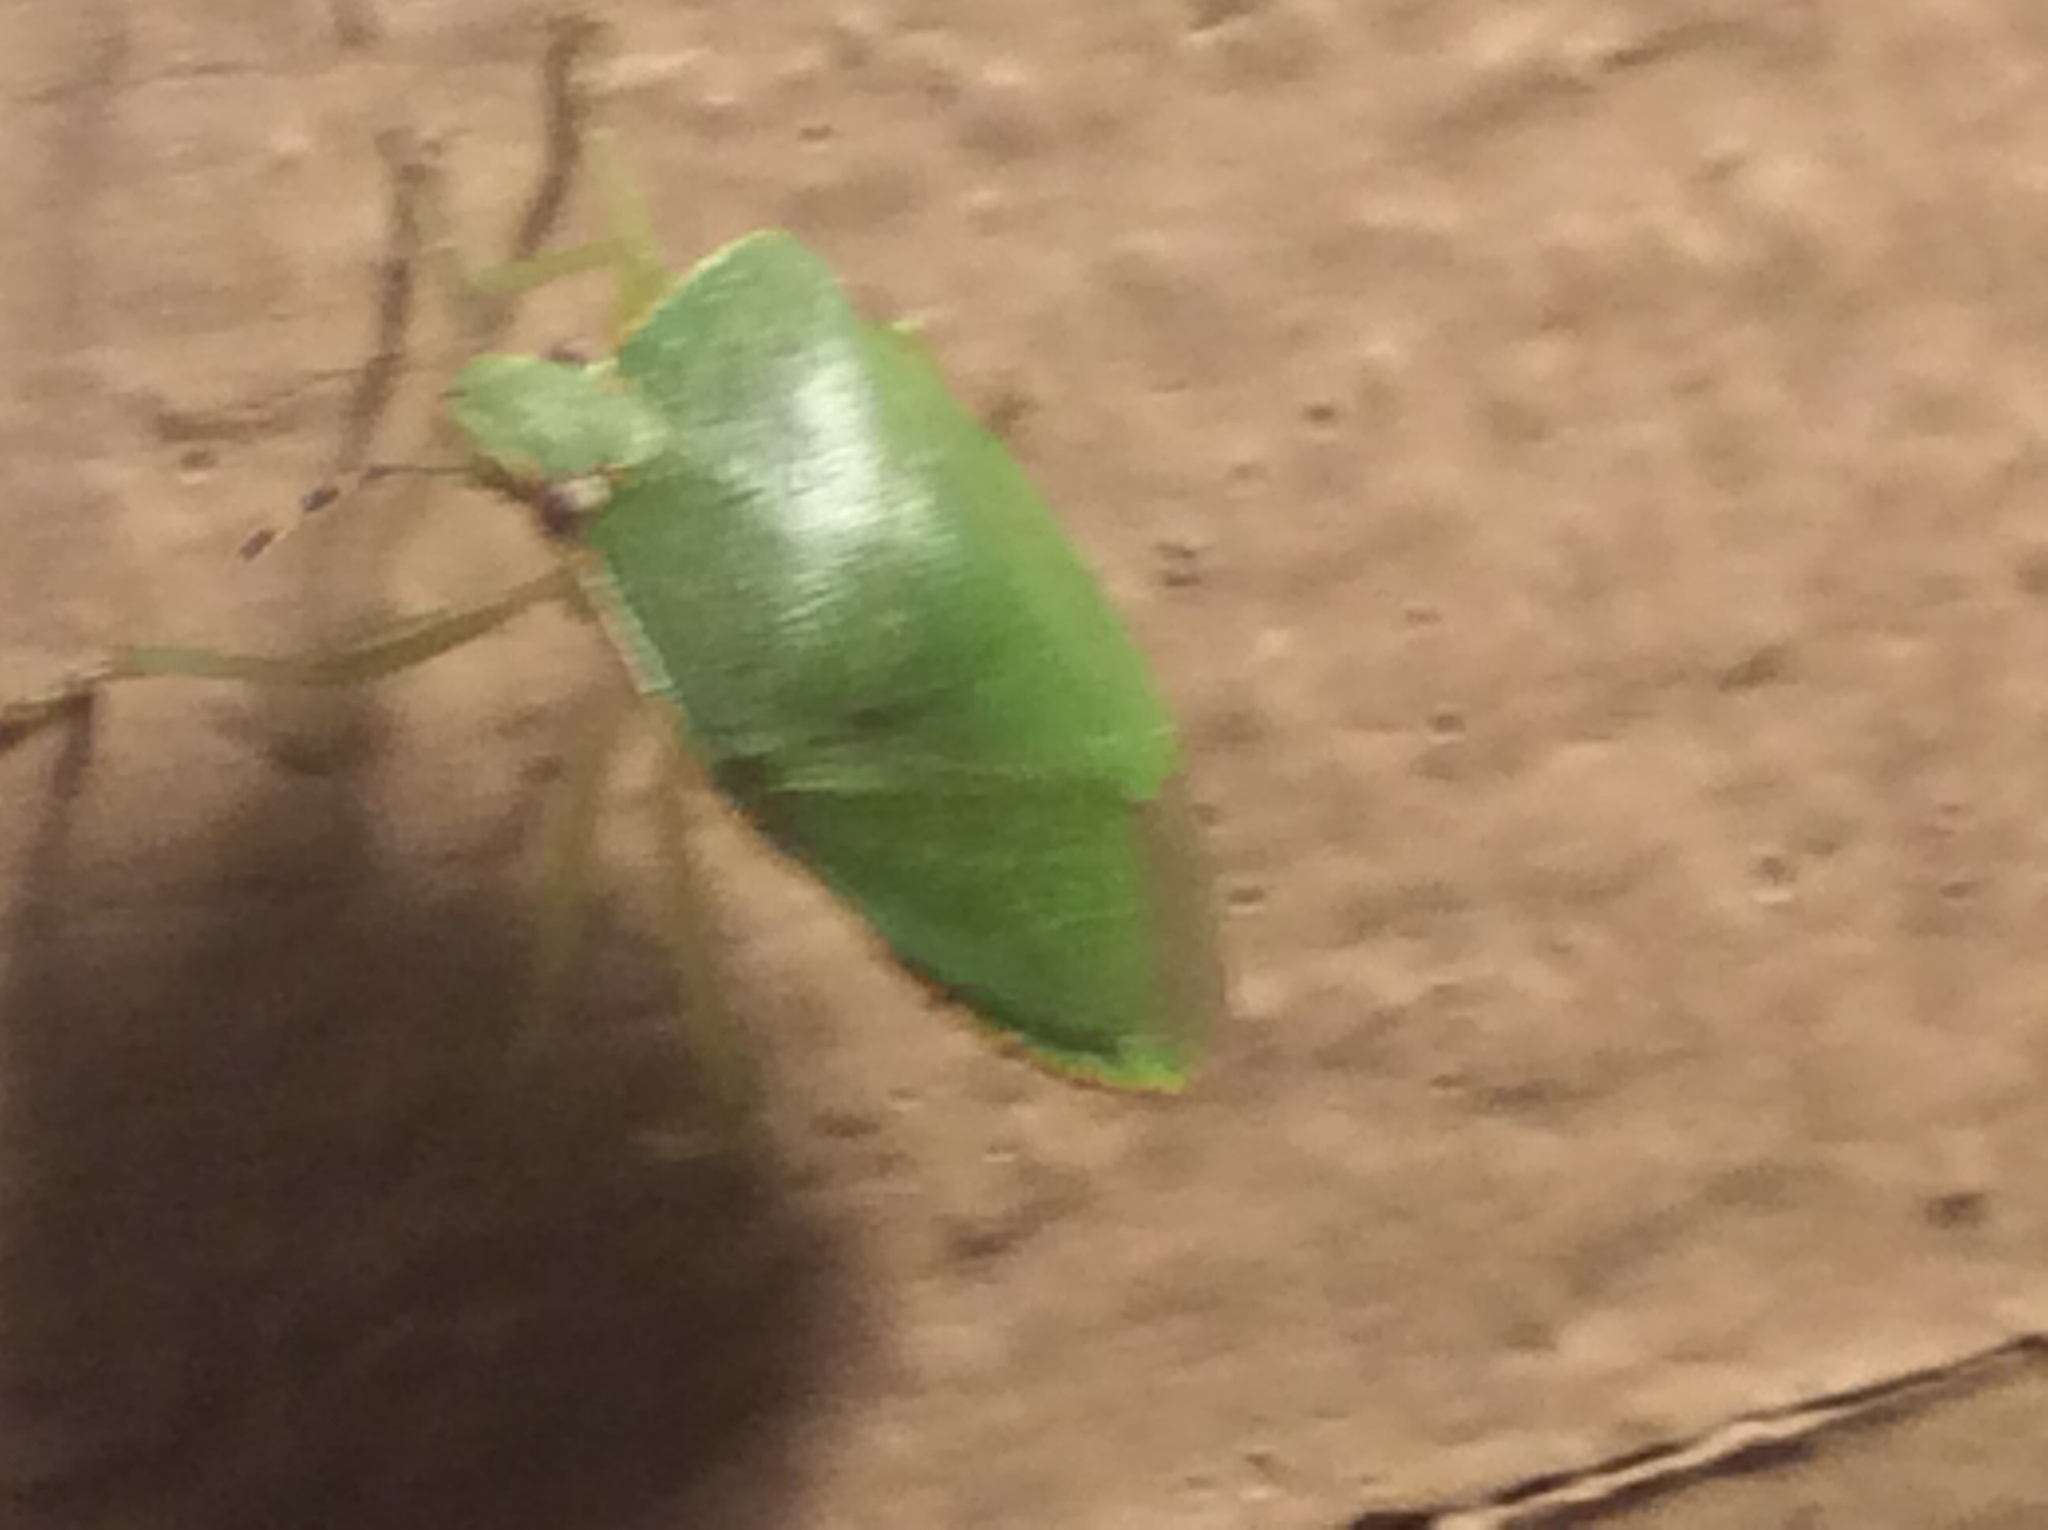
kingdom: Animalia
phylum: Arthropoda
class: Insecta
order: Hemiptera
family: Pentatomidae
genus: Chinavia
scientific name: Chinavia hilaris
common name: Green stink bug
